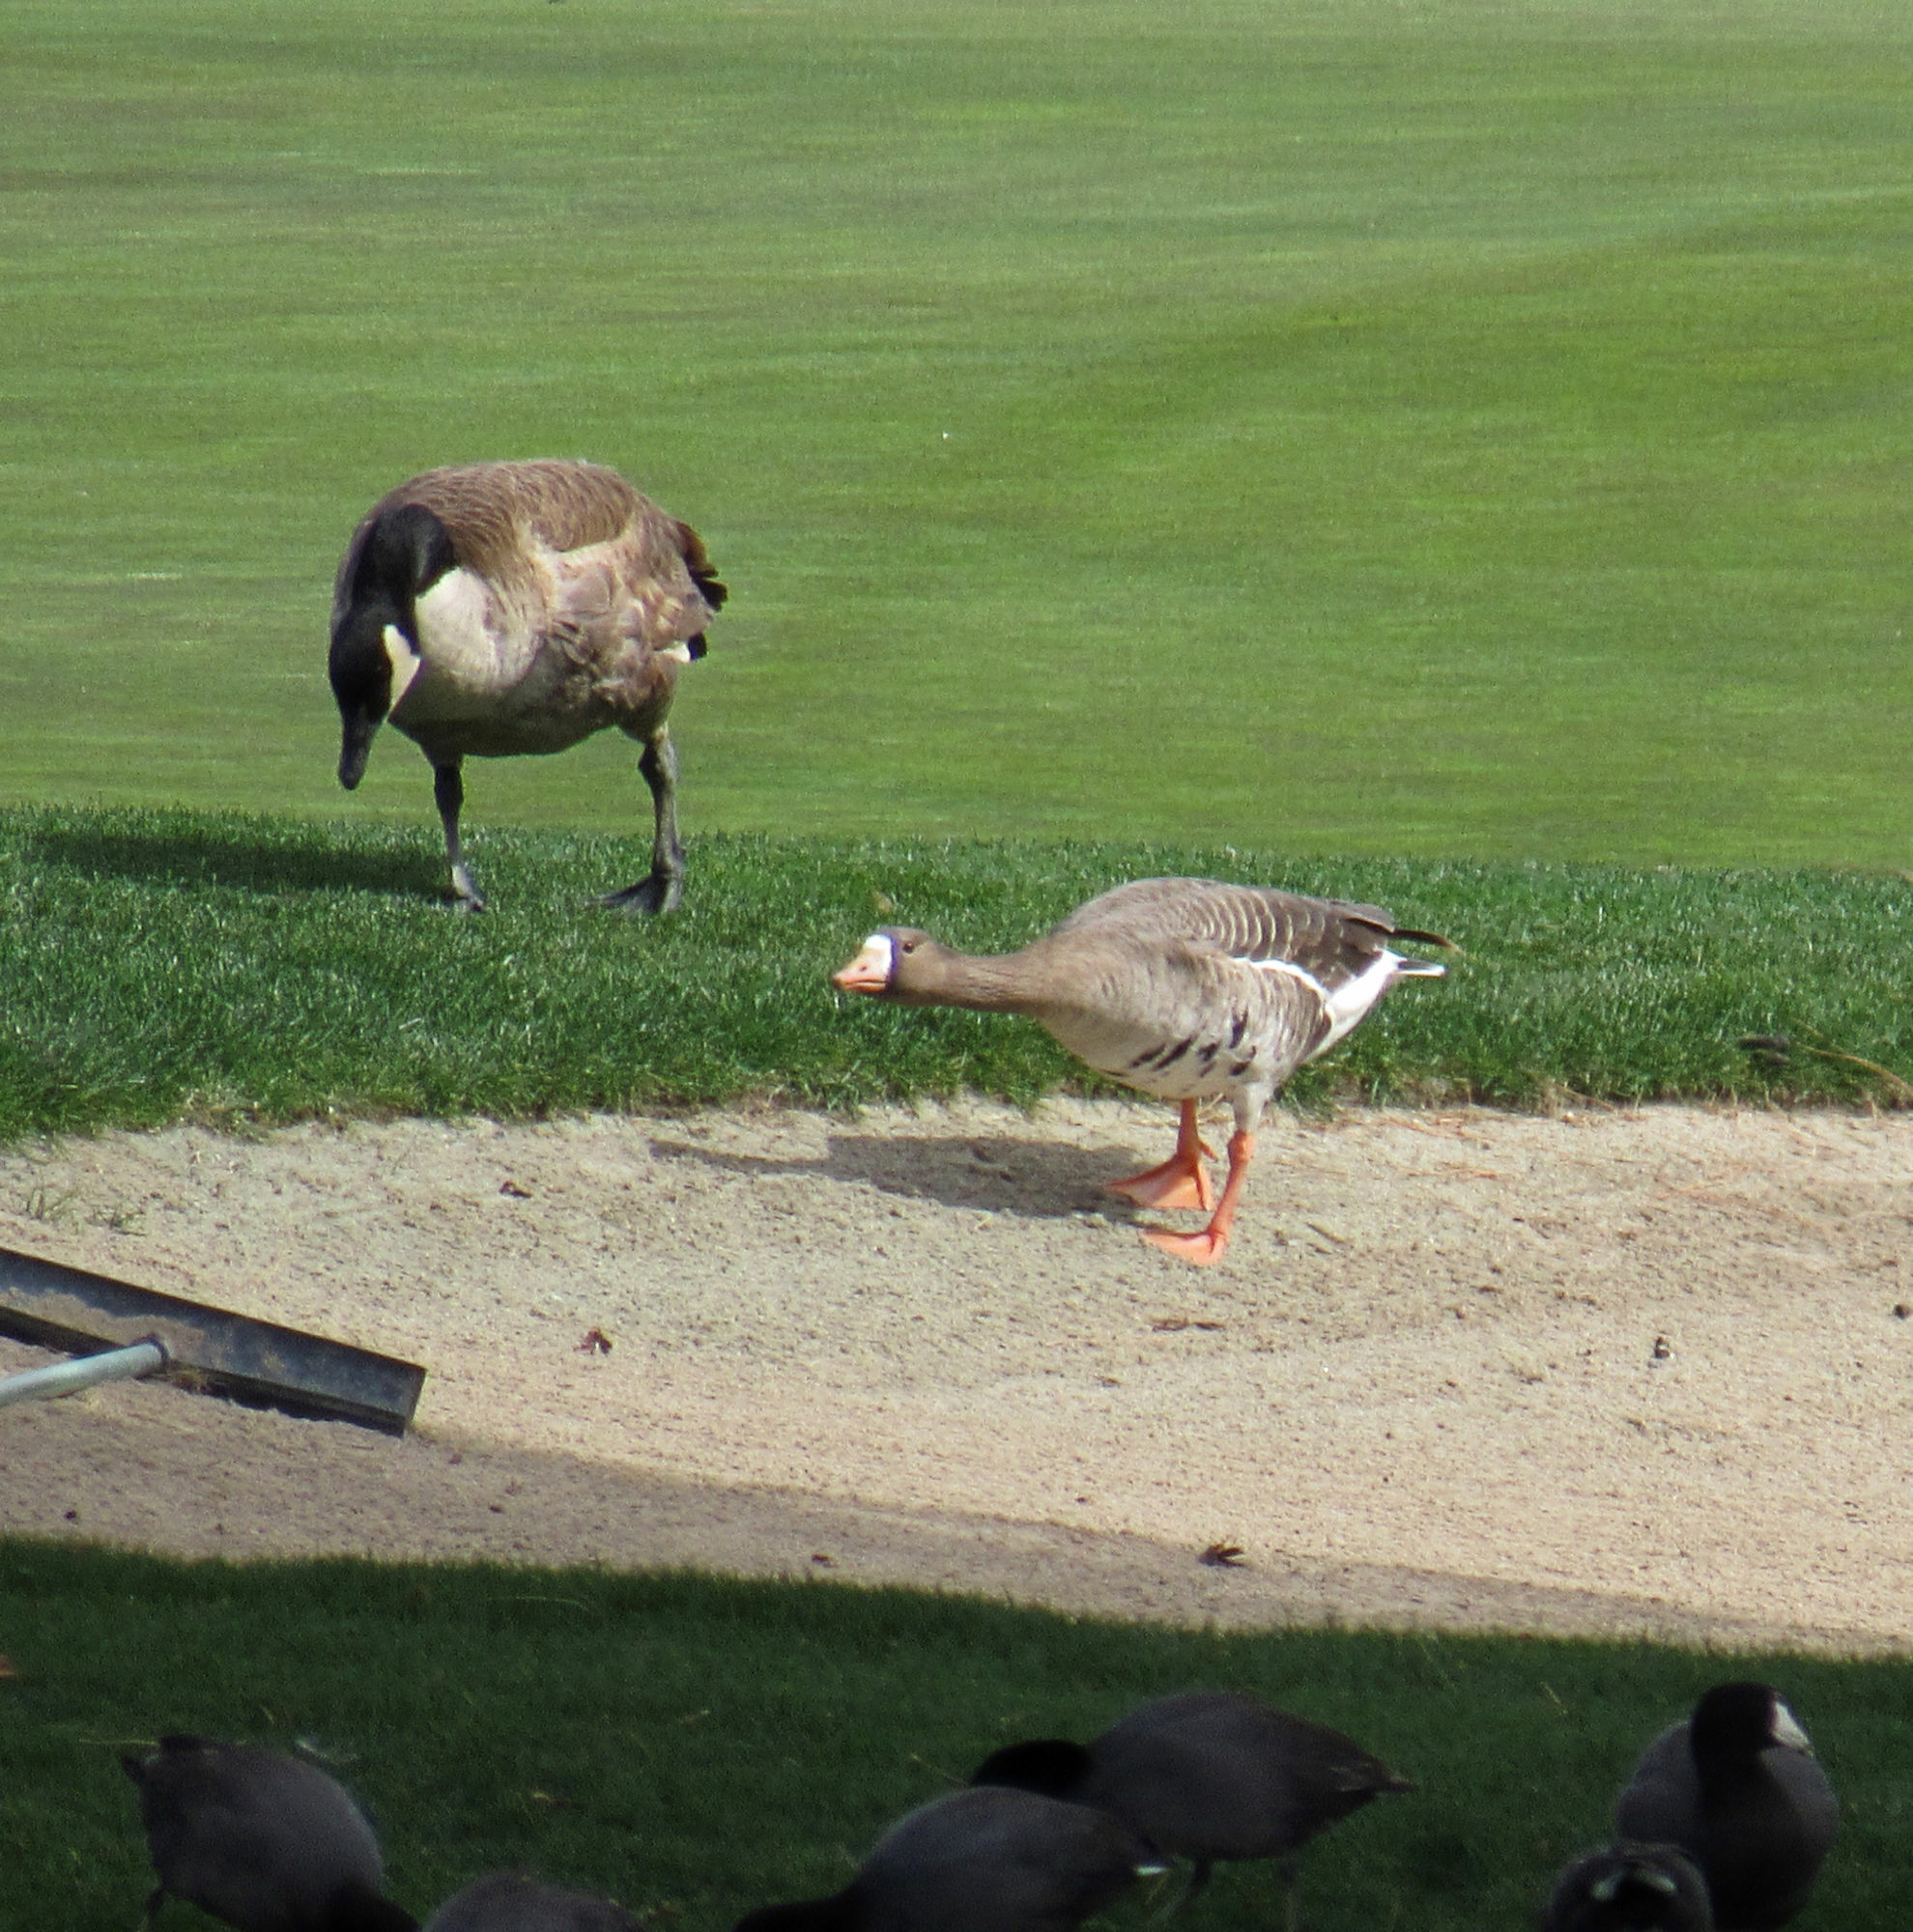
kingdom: Animalia
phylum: Chordata
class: Aves
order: Anseriformes
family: Anatidae
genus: Branta
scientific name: Branta canadensis
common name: Canada goose
